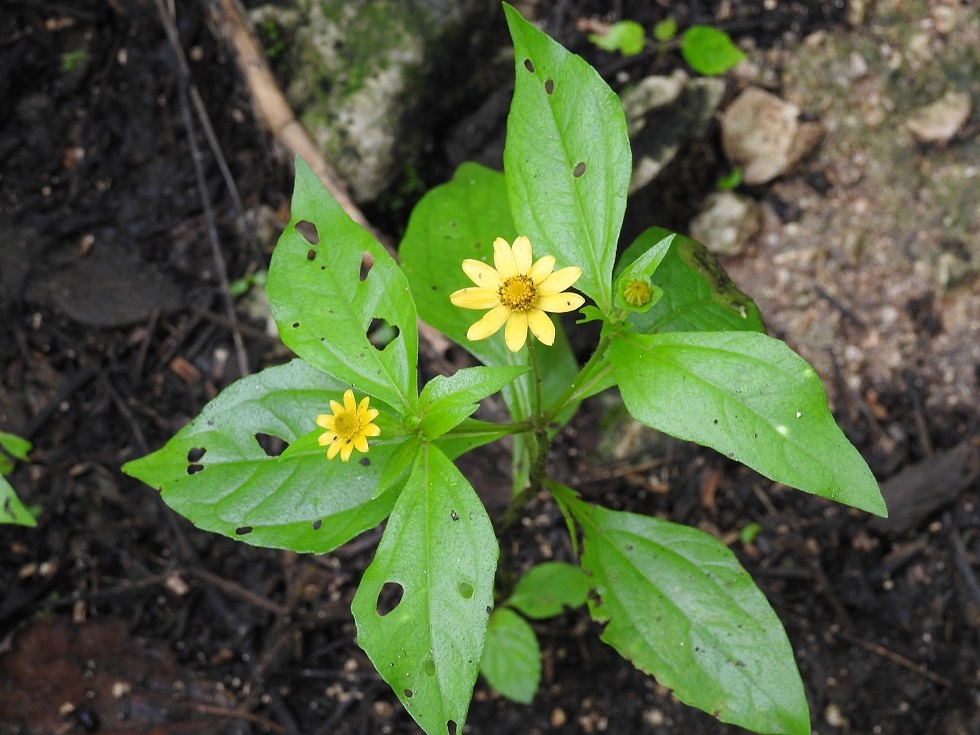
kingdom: Plantae
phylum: Tracheophyta
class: Magnoliopsida
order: Asterales
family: Asteraceae
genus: Melampodium
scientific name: Melampodium divaricatum
